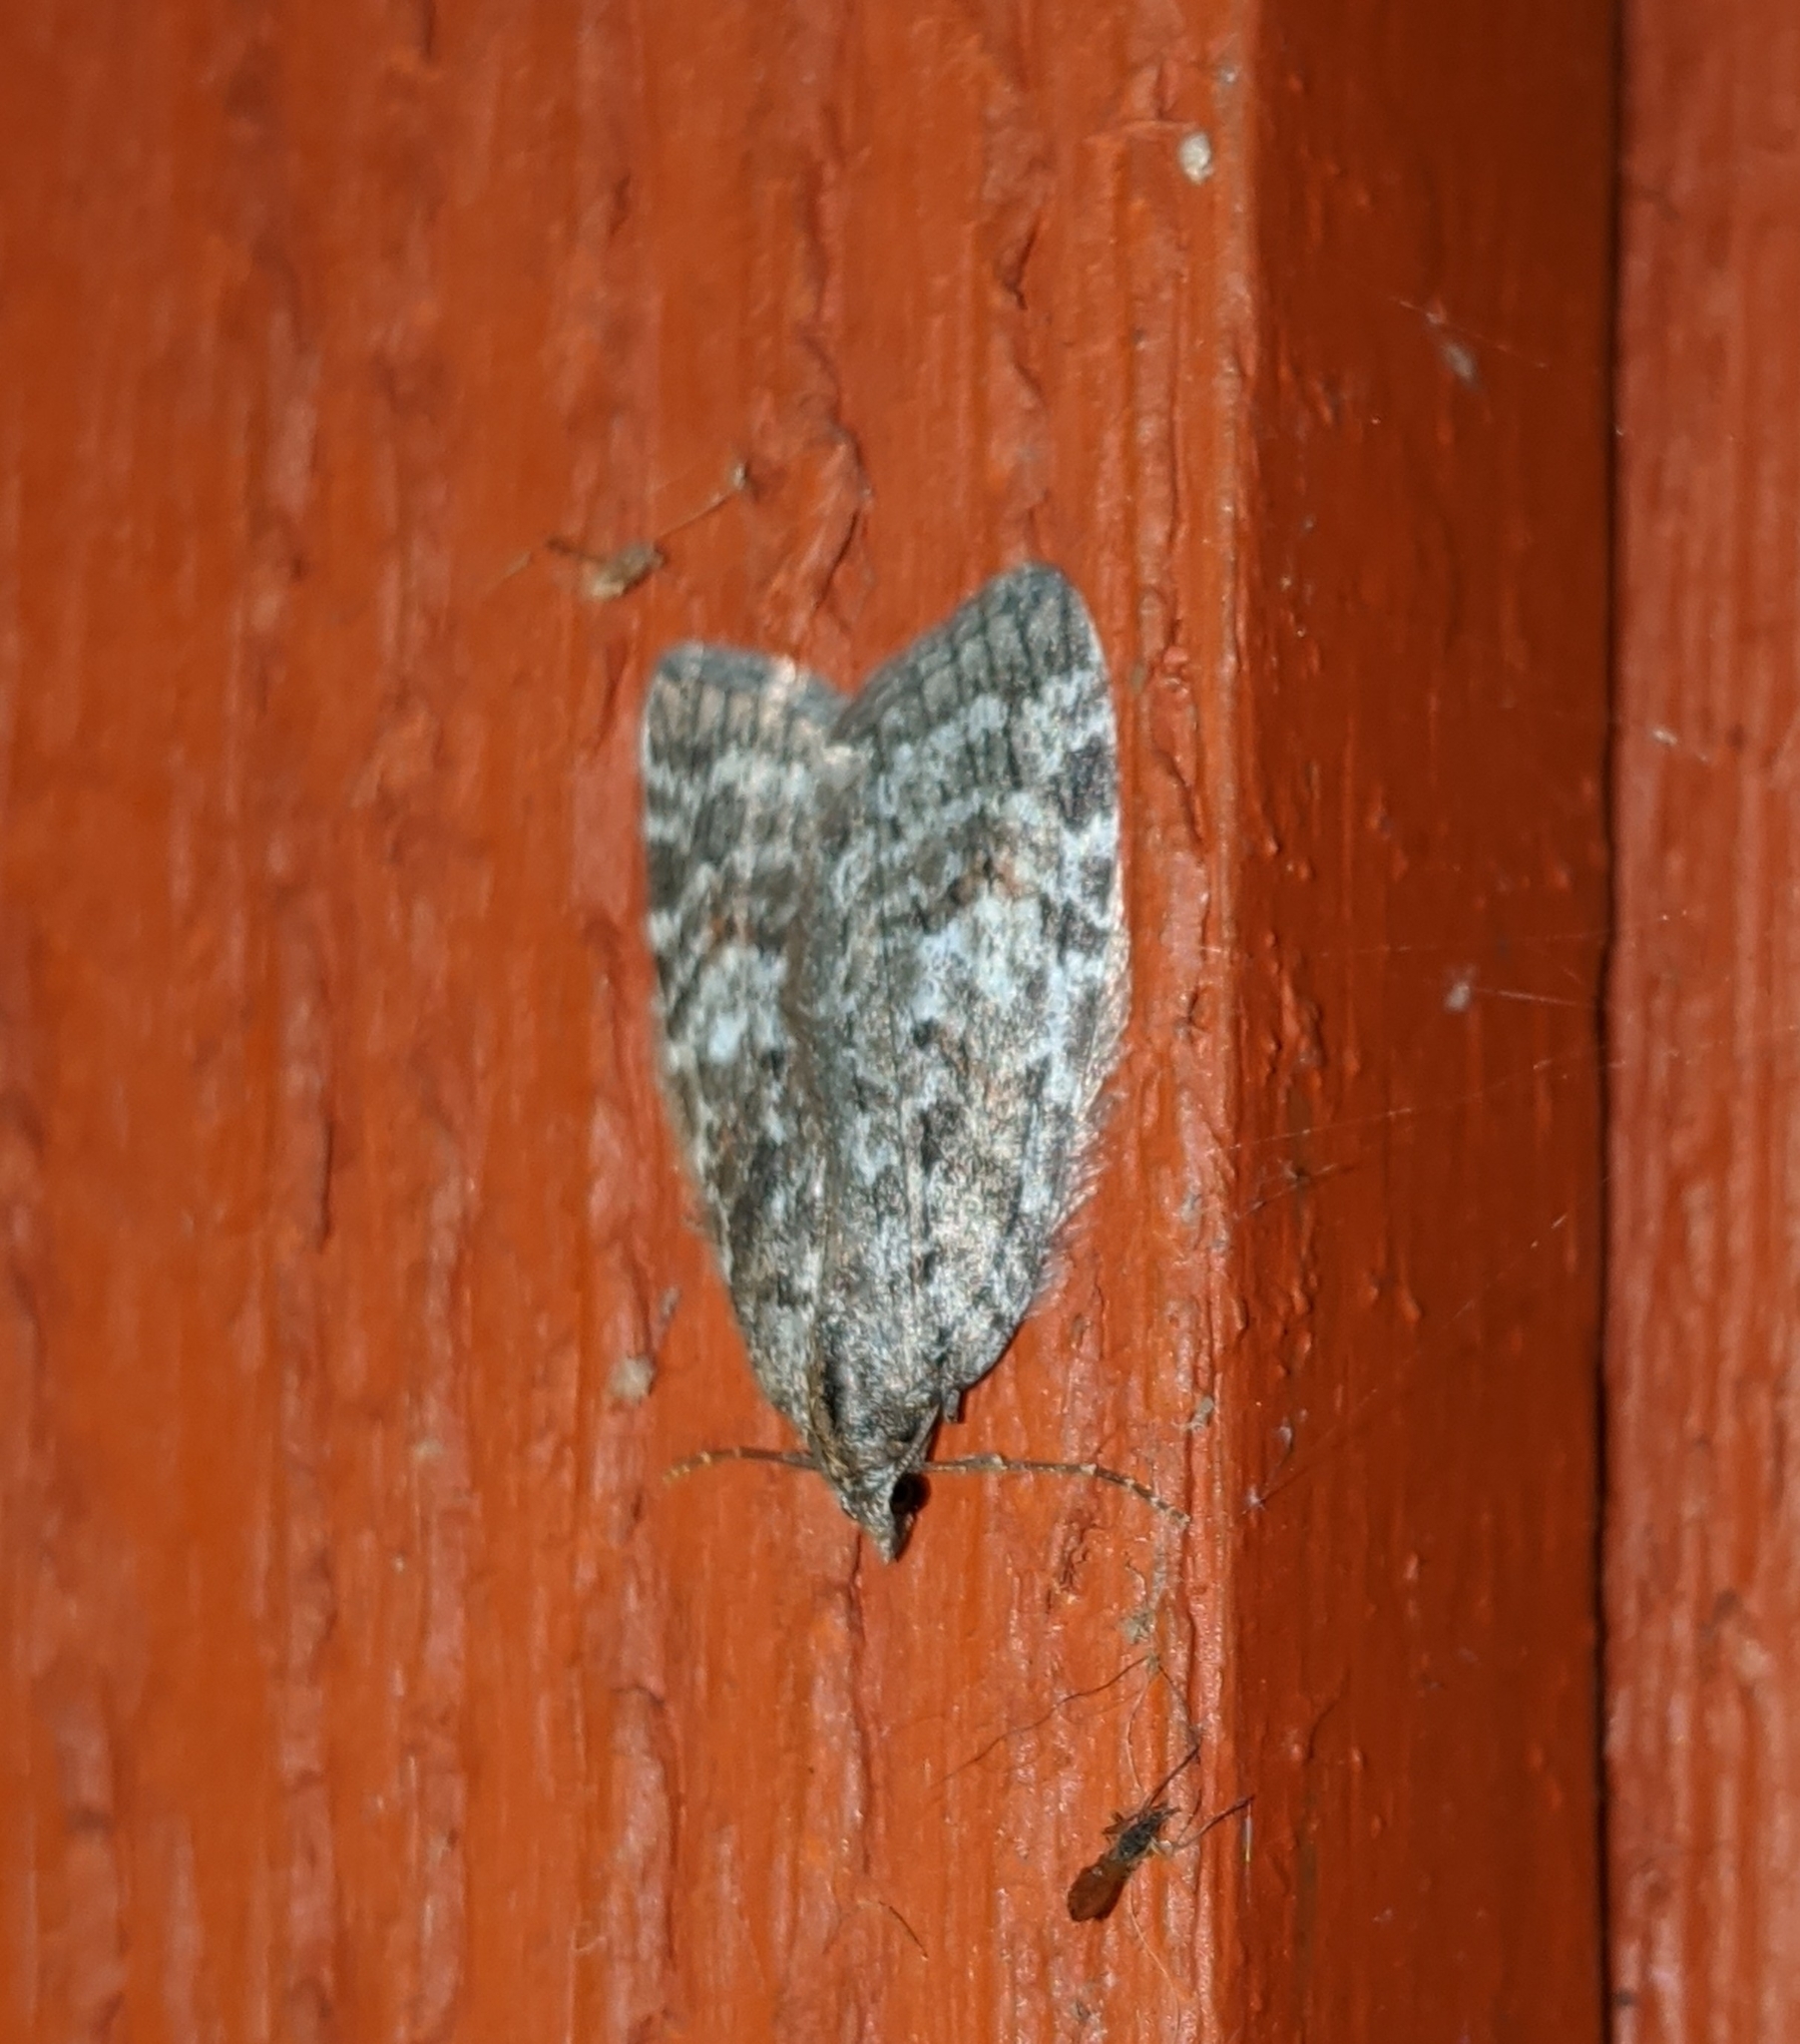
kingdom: Animalia
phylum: Arthropoda
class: Insecta
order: Lepidoptera
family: Geometridae
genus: Hydriomena
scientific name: Hydriomena manzanita
